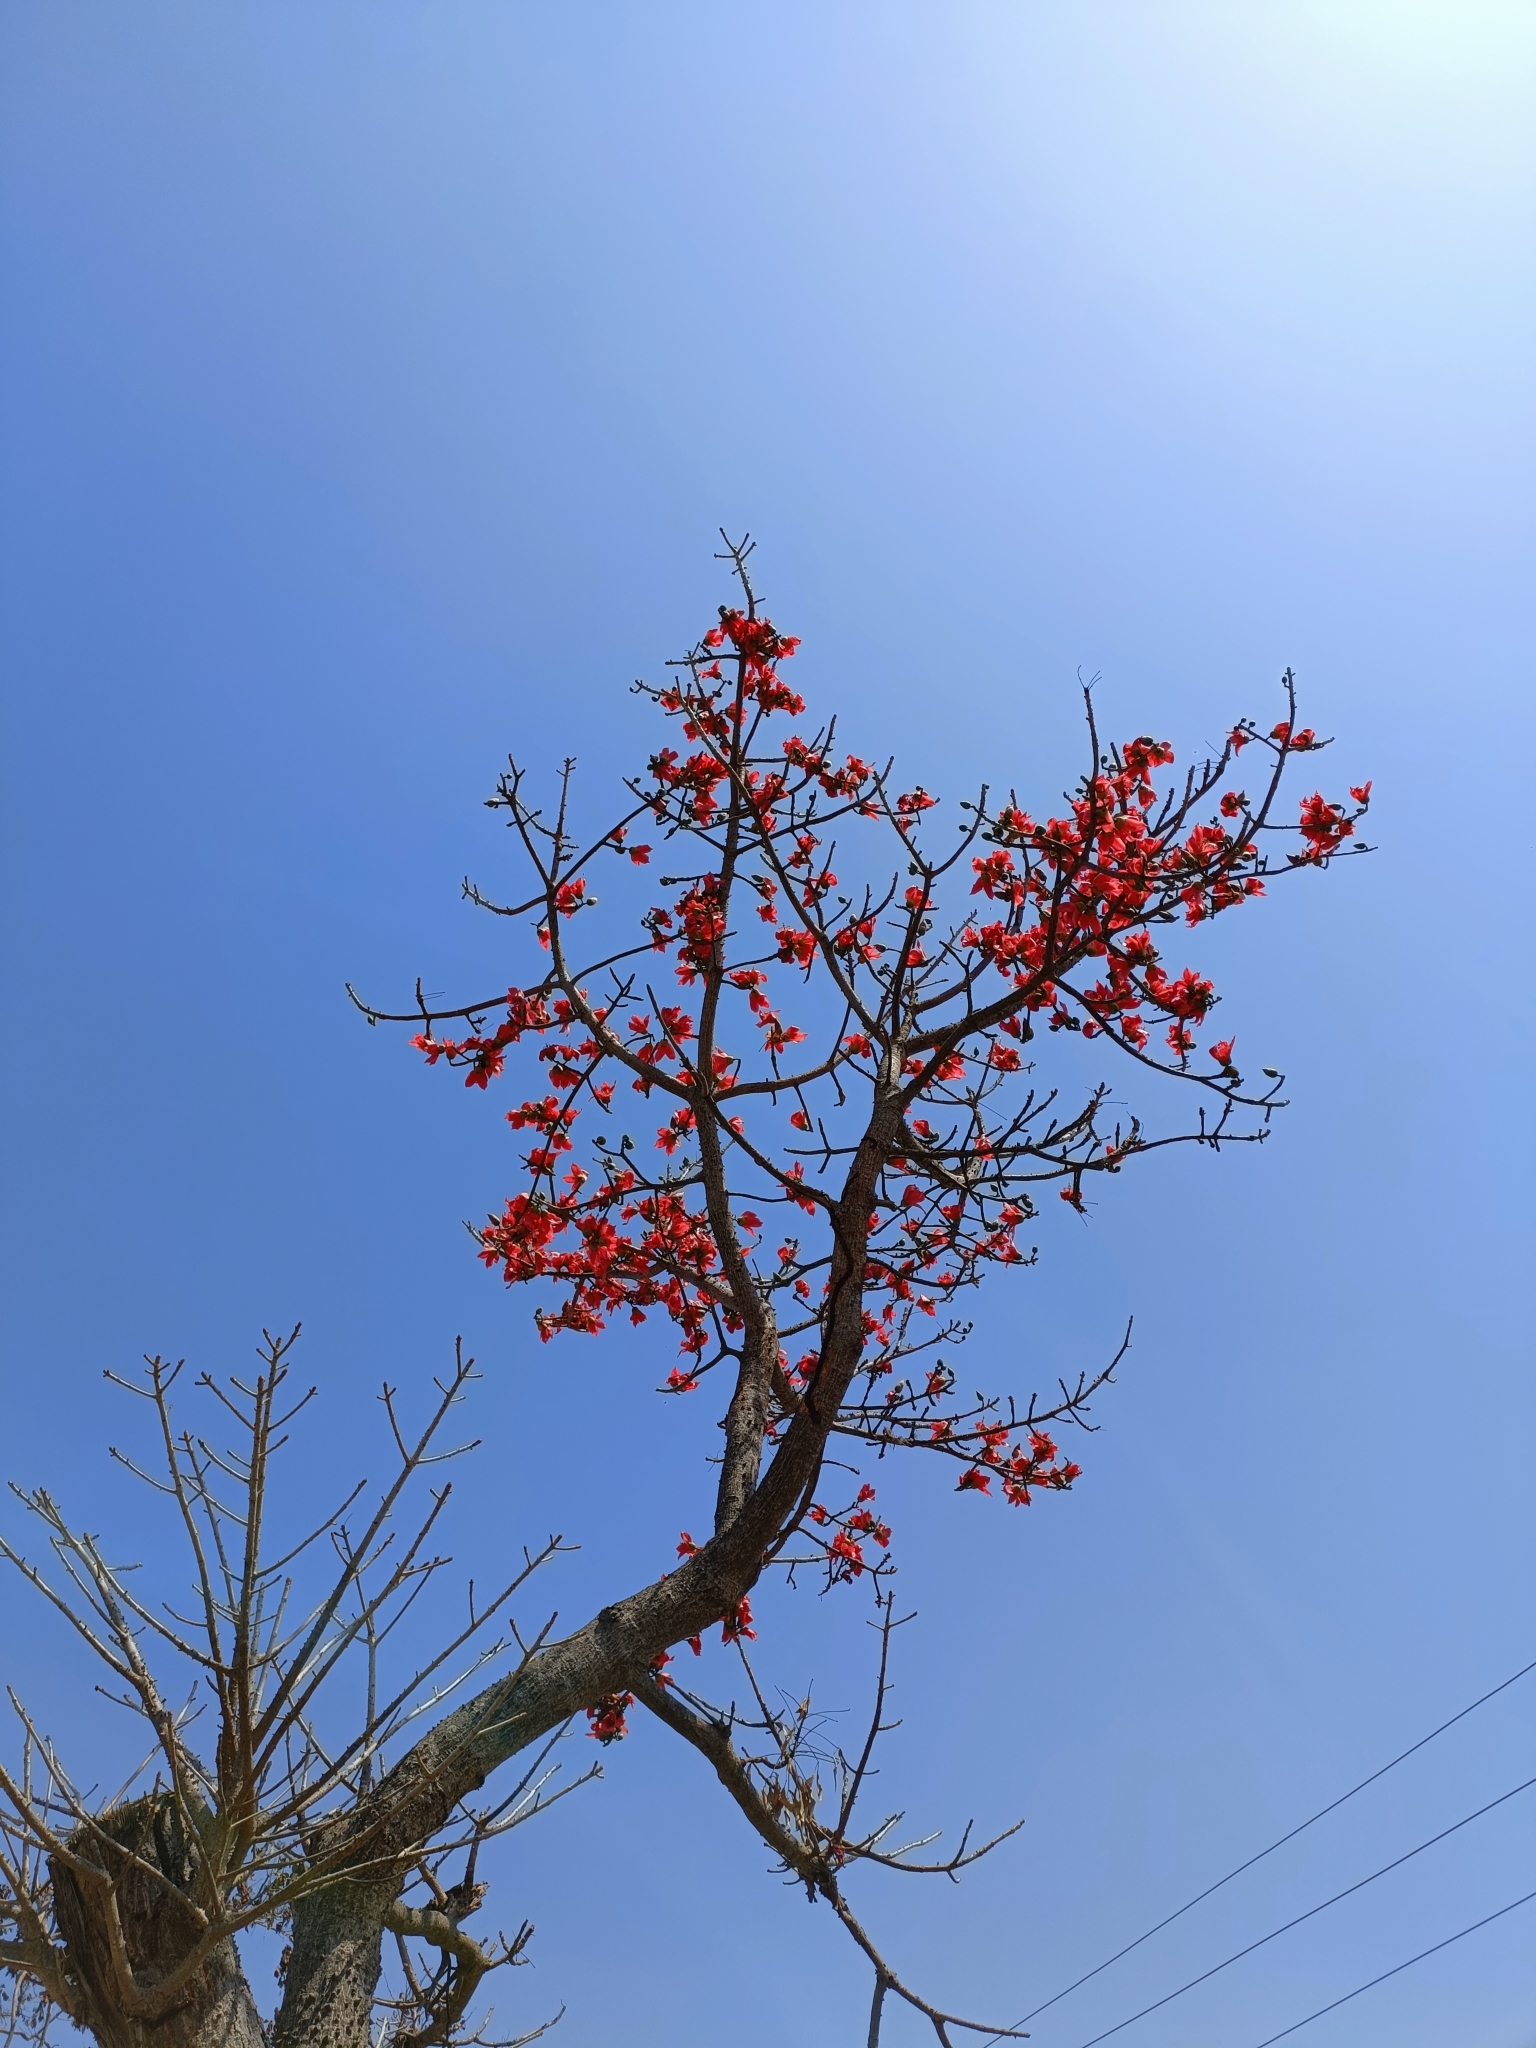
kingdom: Plantae
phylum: Tracheophyta
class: Magnoliopsida
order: Malvales
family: Malvaceae
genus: Bombax
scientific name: Bombax ceiba
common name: Northern-cottonwood
